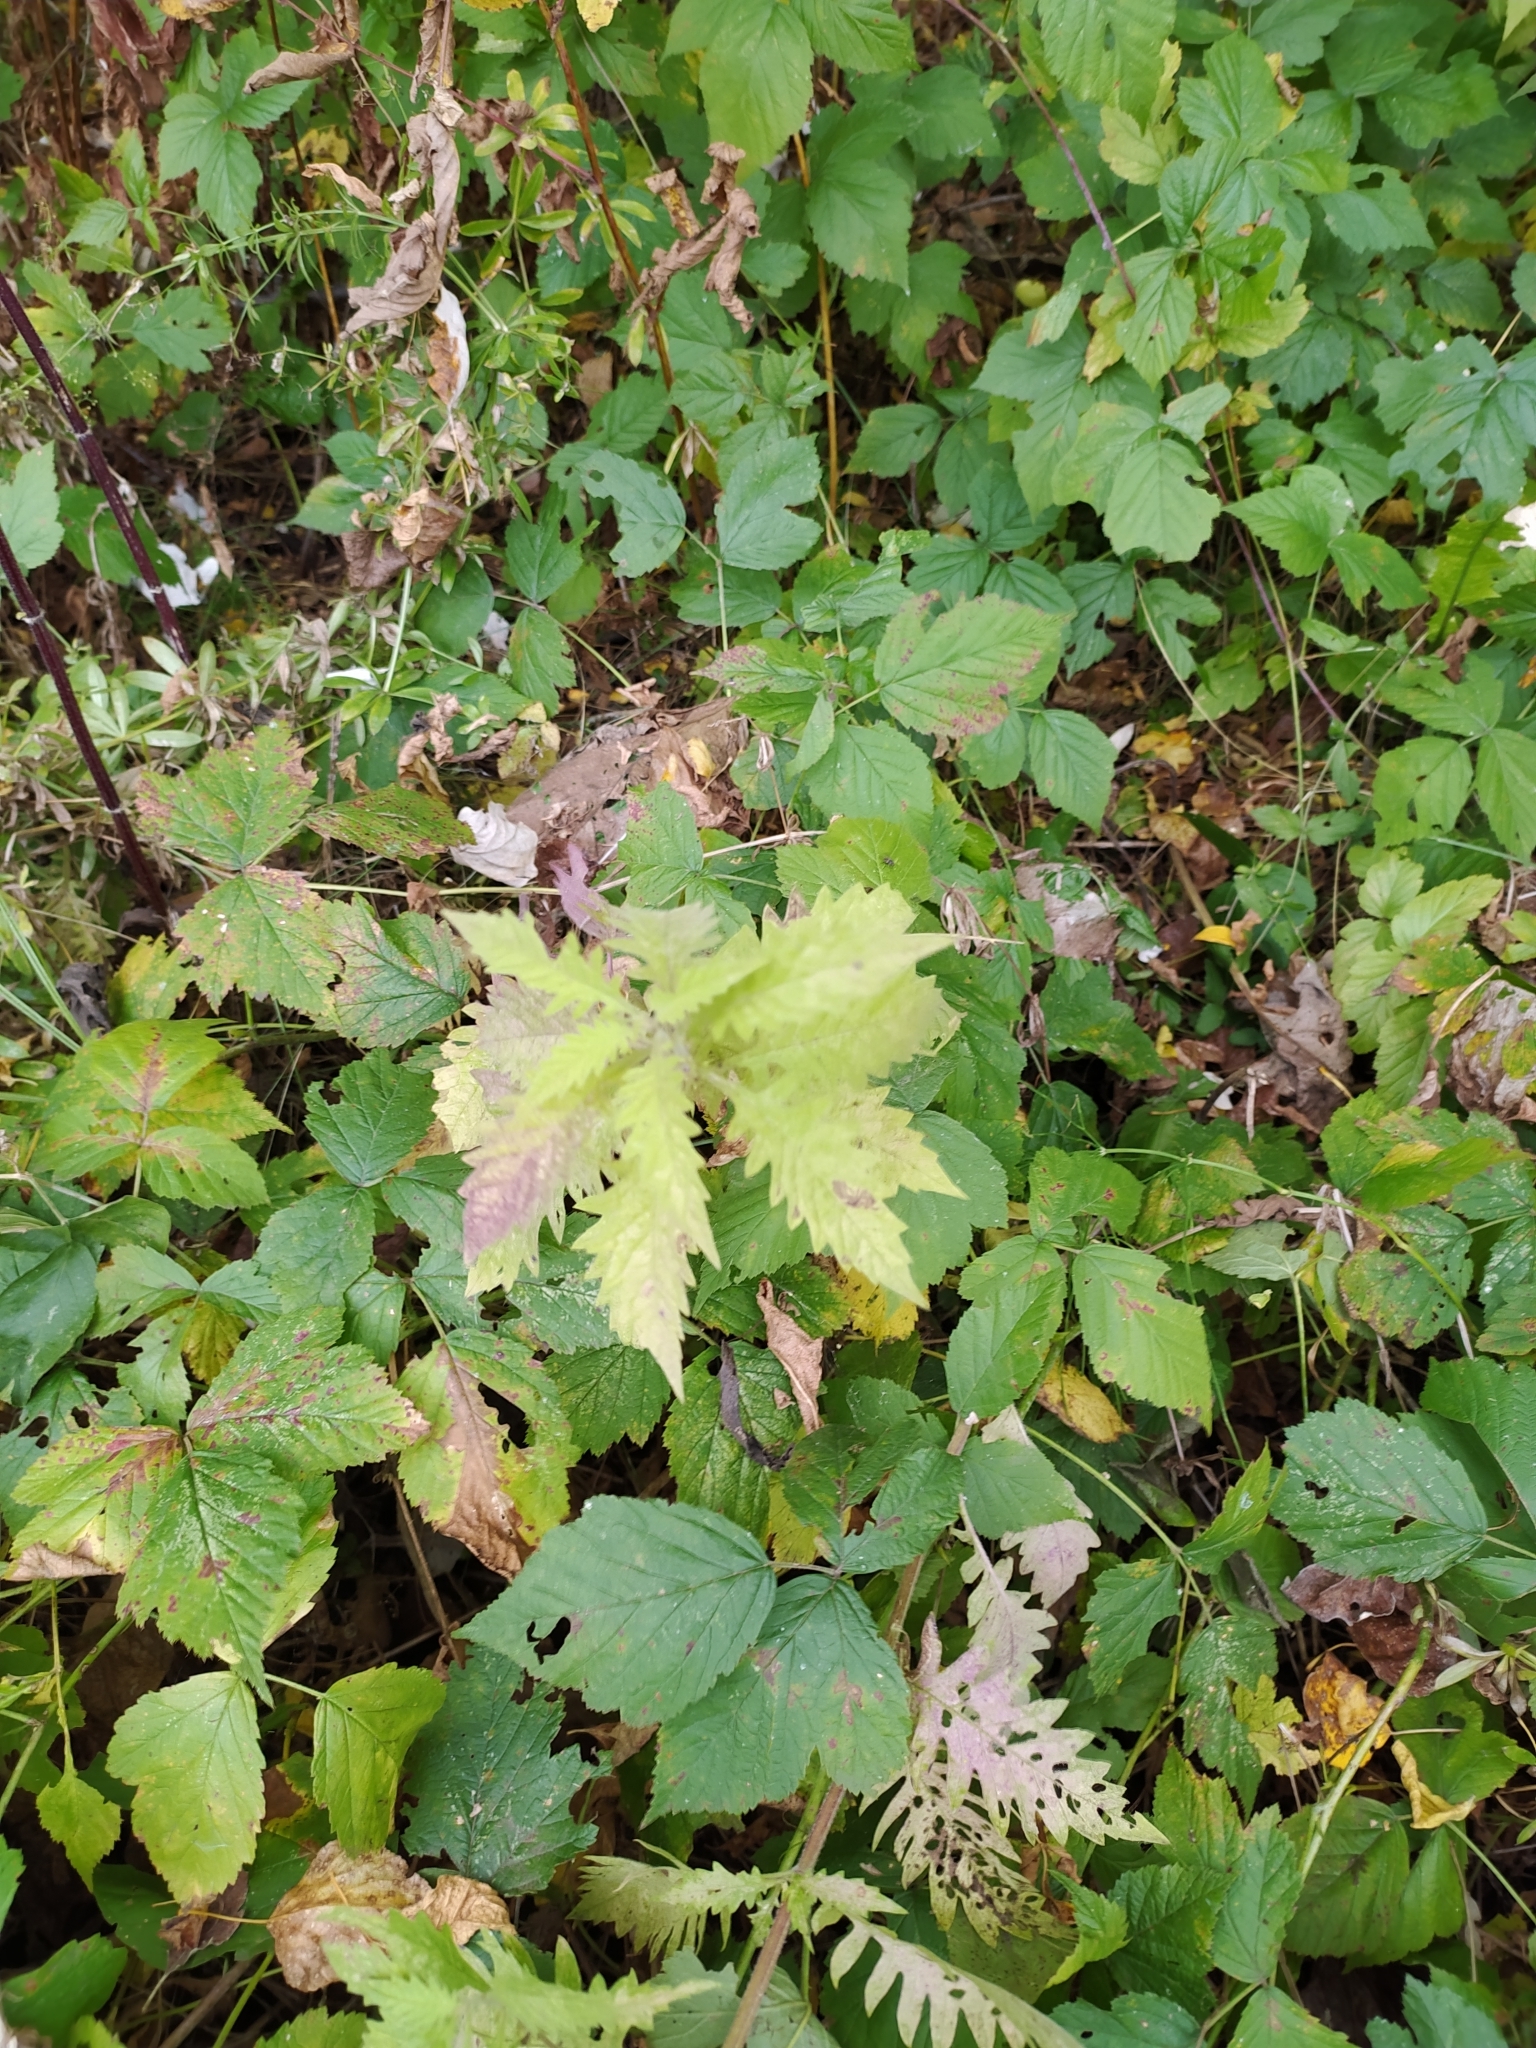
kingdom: Plantae
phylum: Tracheophyta
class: Magnoliopsida
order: Lamiales
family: Lamiaceae
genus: Lycopus
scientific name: Lycopus europaeus
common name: European bugleweed
